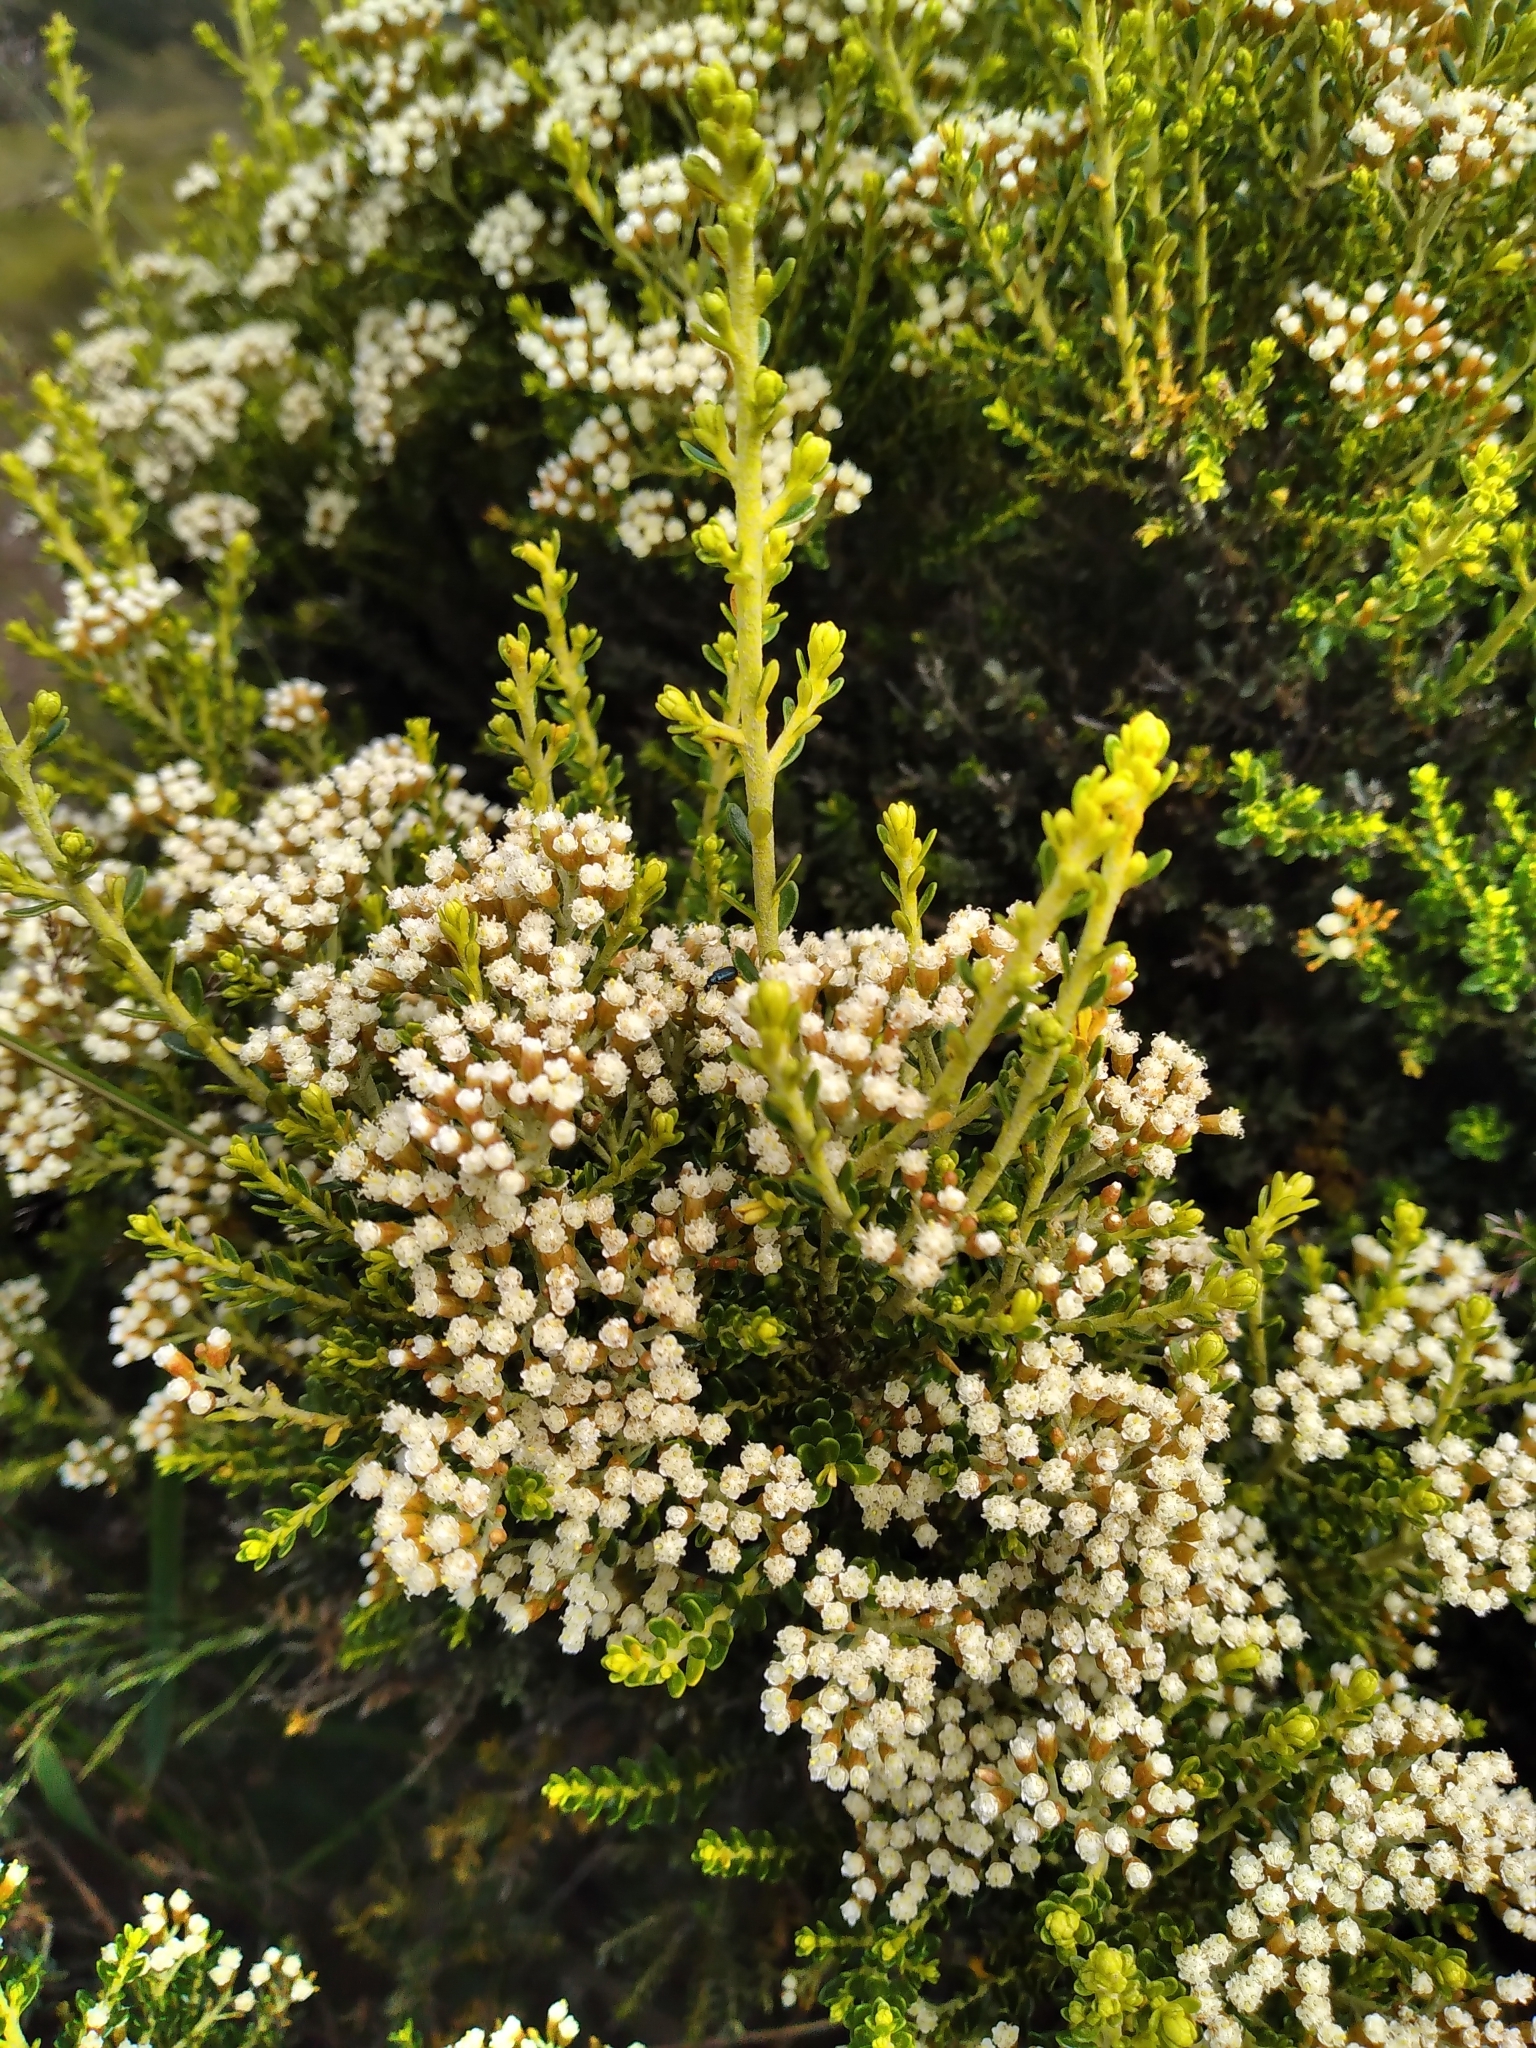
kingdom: Plantae
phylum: Tracheophyta
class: Magnoliopsida
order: Asterales
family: Asteraceae
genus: Ozothamnus
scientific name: Ozothamnus leptophyllus
